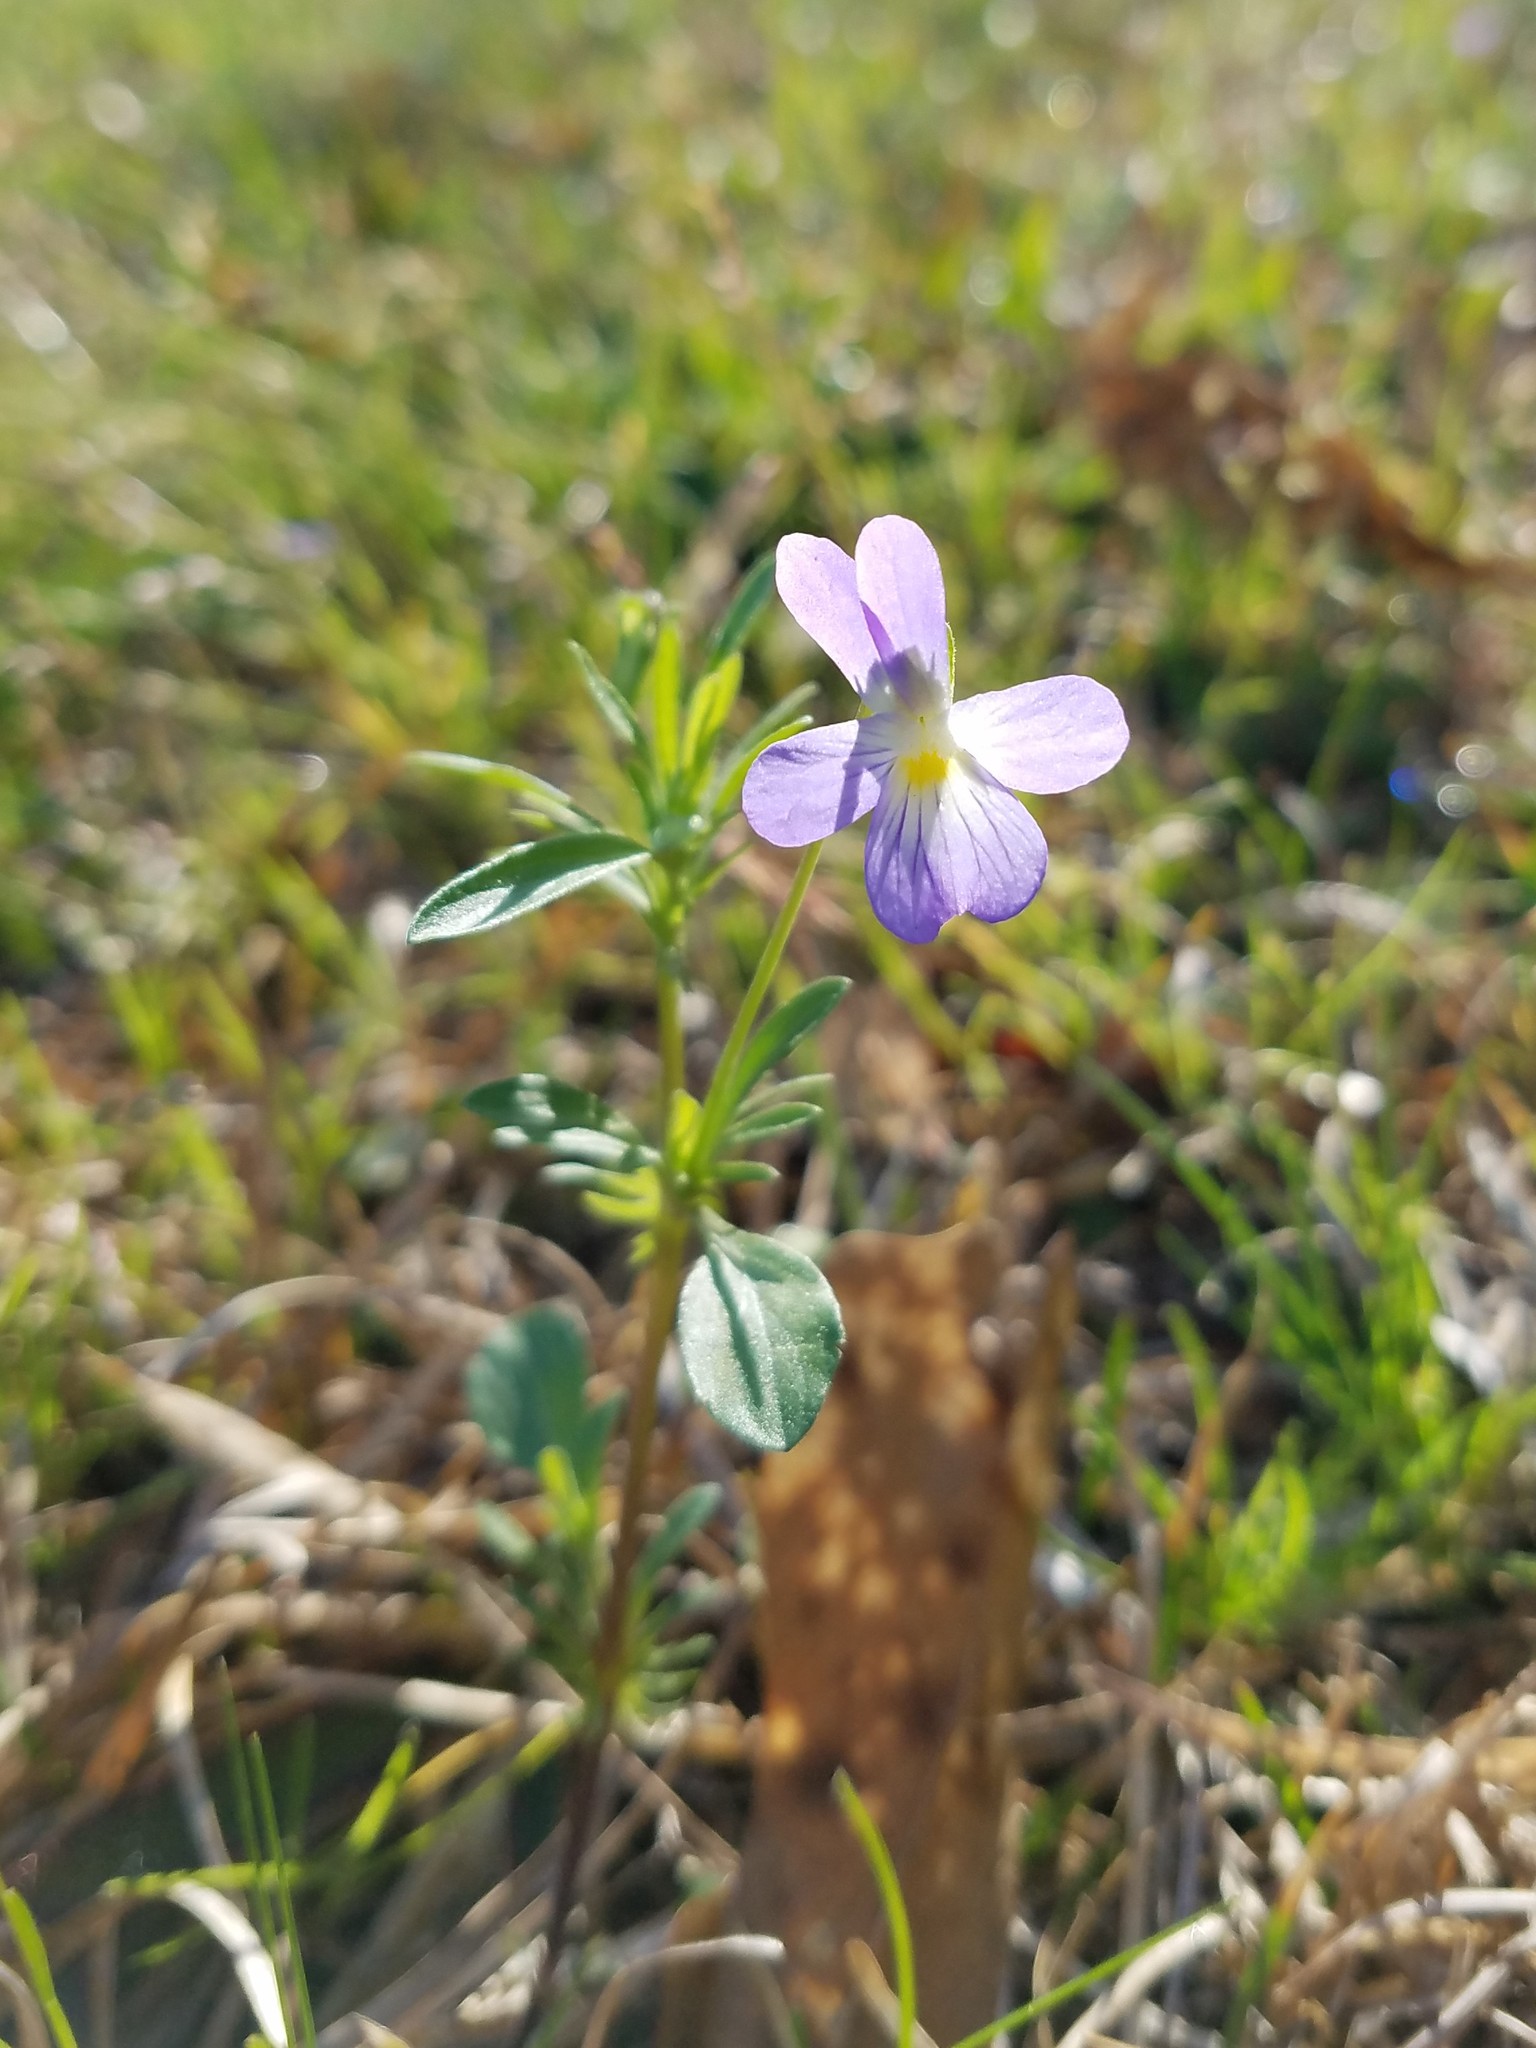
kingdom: Plantae
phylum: Tracheophyta
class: Magnoliopsida
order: Malpighiales
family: Violaceae
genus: Viola
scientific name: Viola rafinesquei
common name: American field pansy
